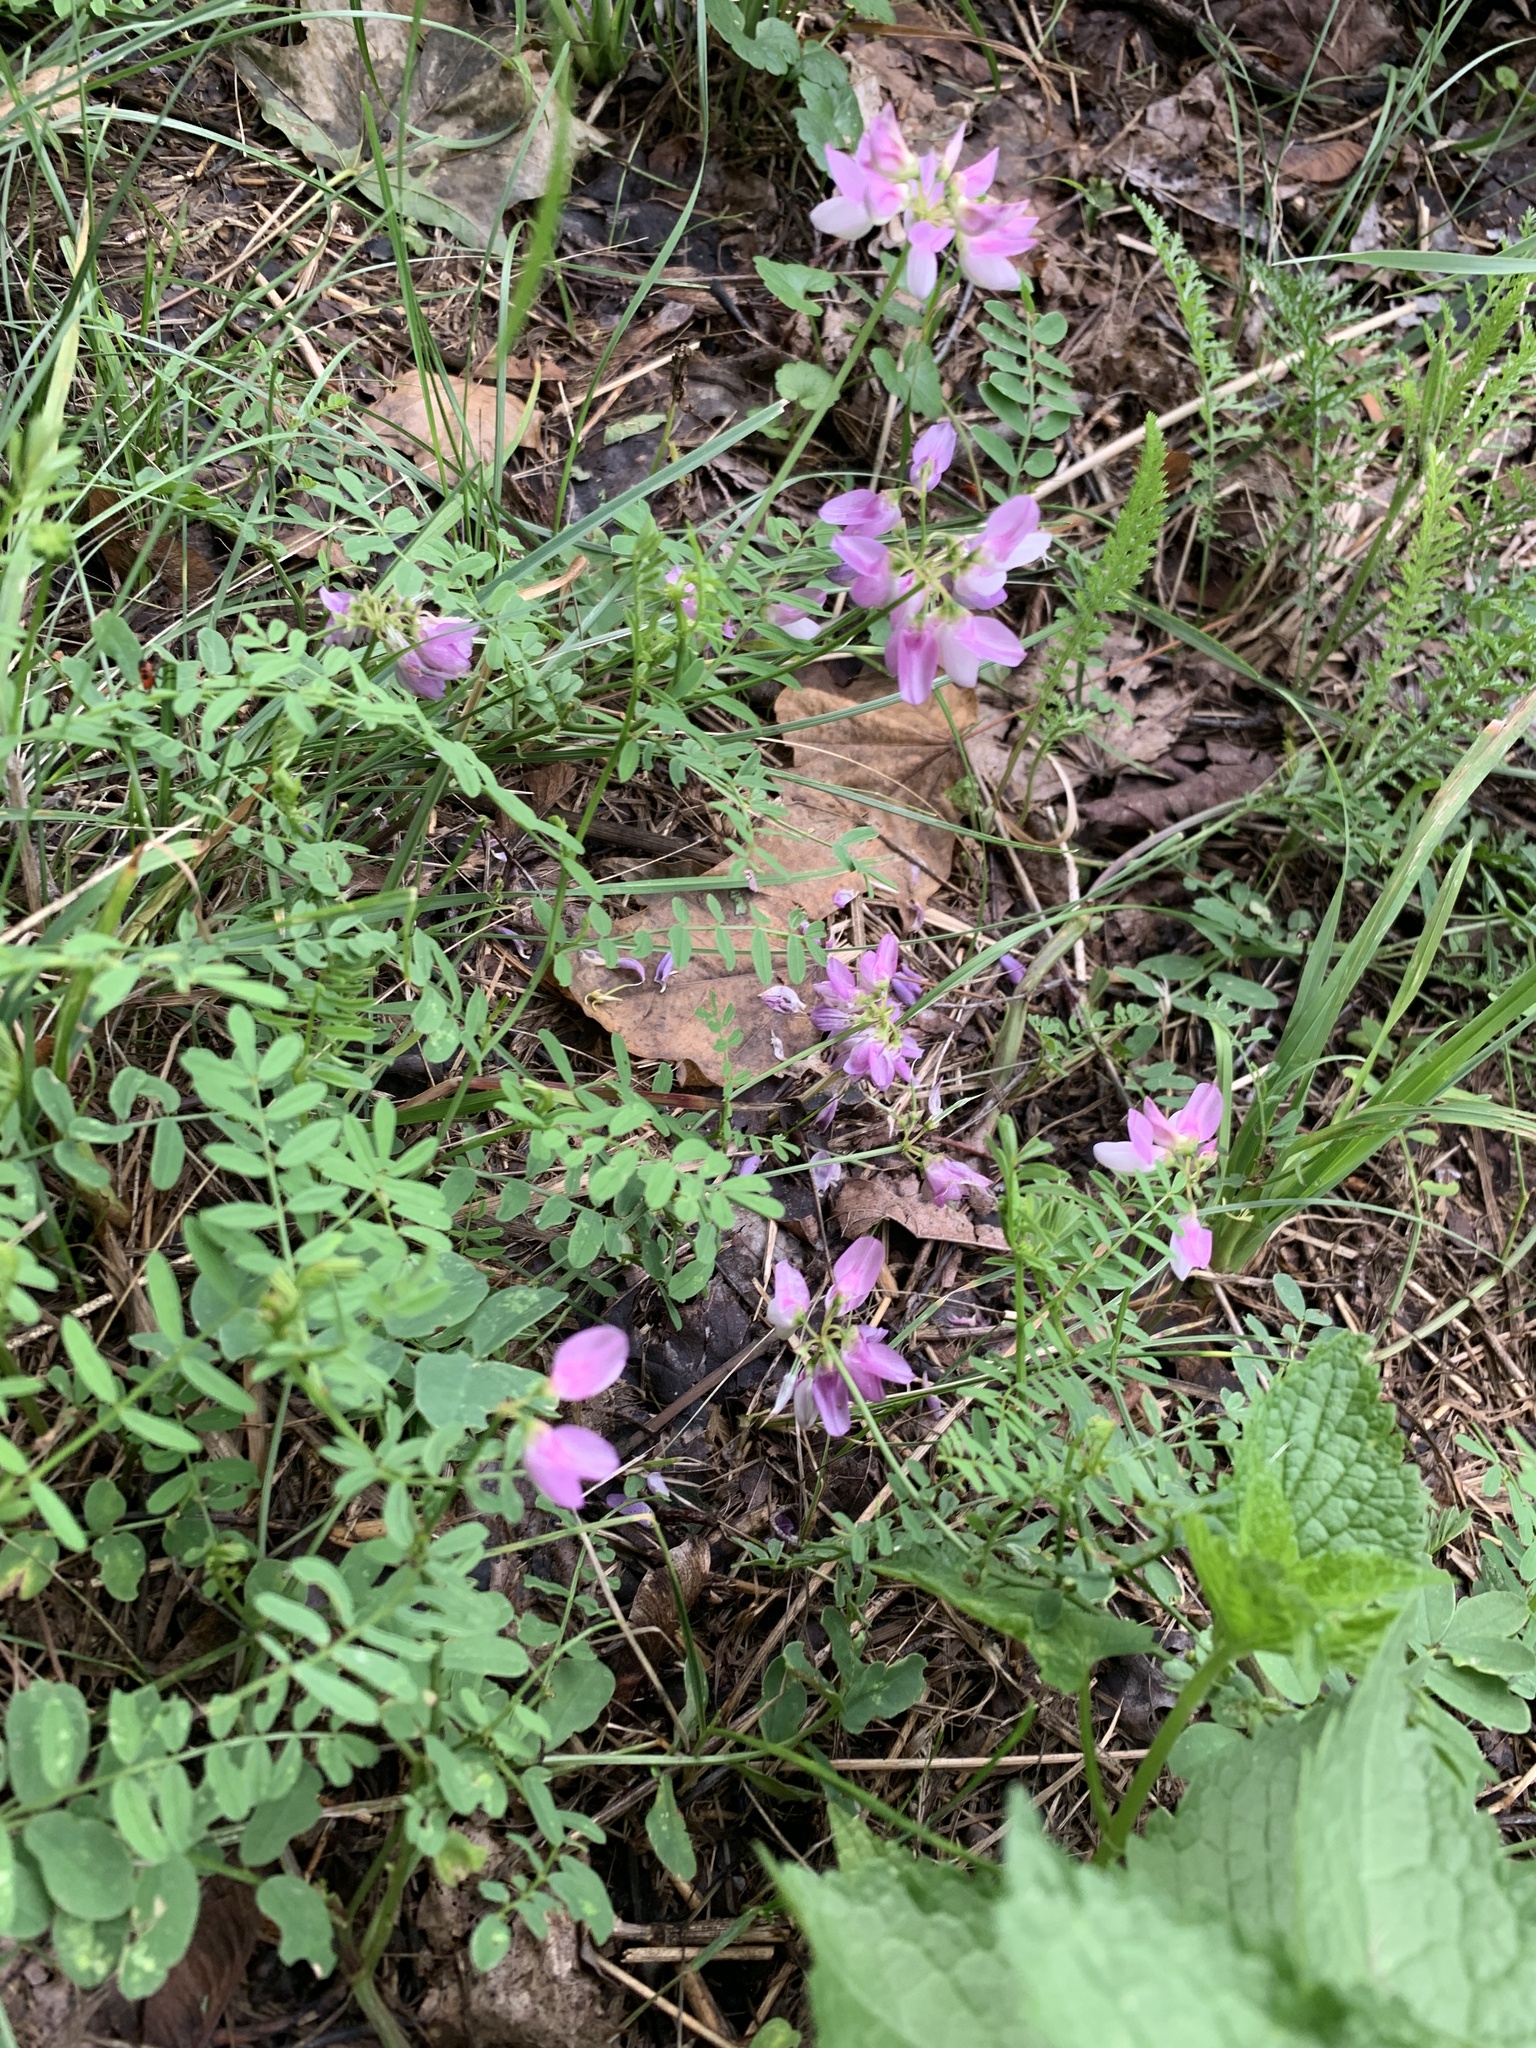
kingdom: Plantae
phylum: Tracheophyta
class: Magnoliopsida
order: Fabales
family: Fabaceae
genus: Coronilla
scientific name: Coronilla varia
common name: Crownvetch
